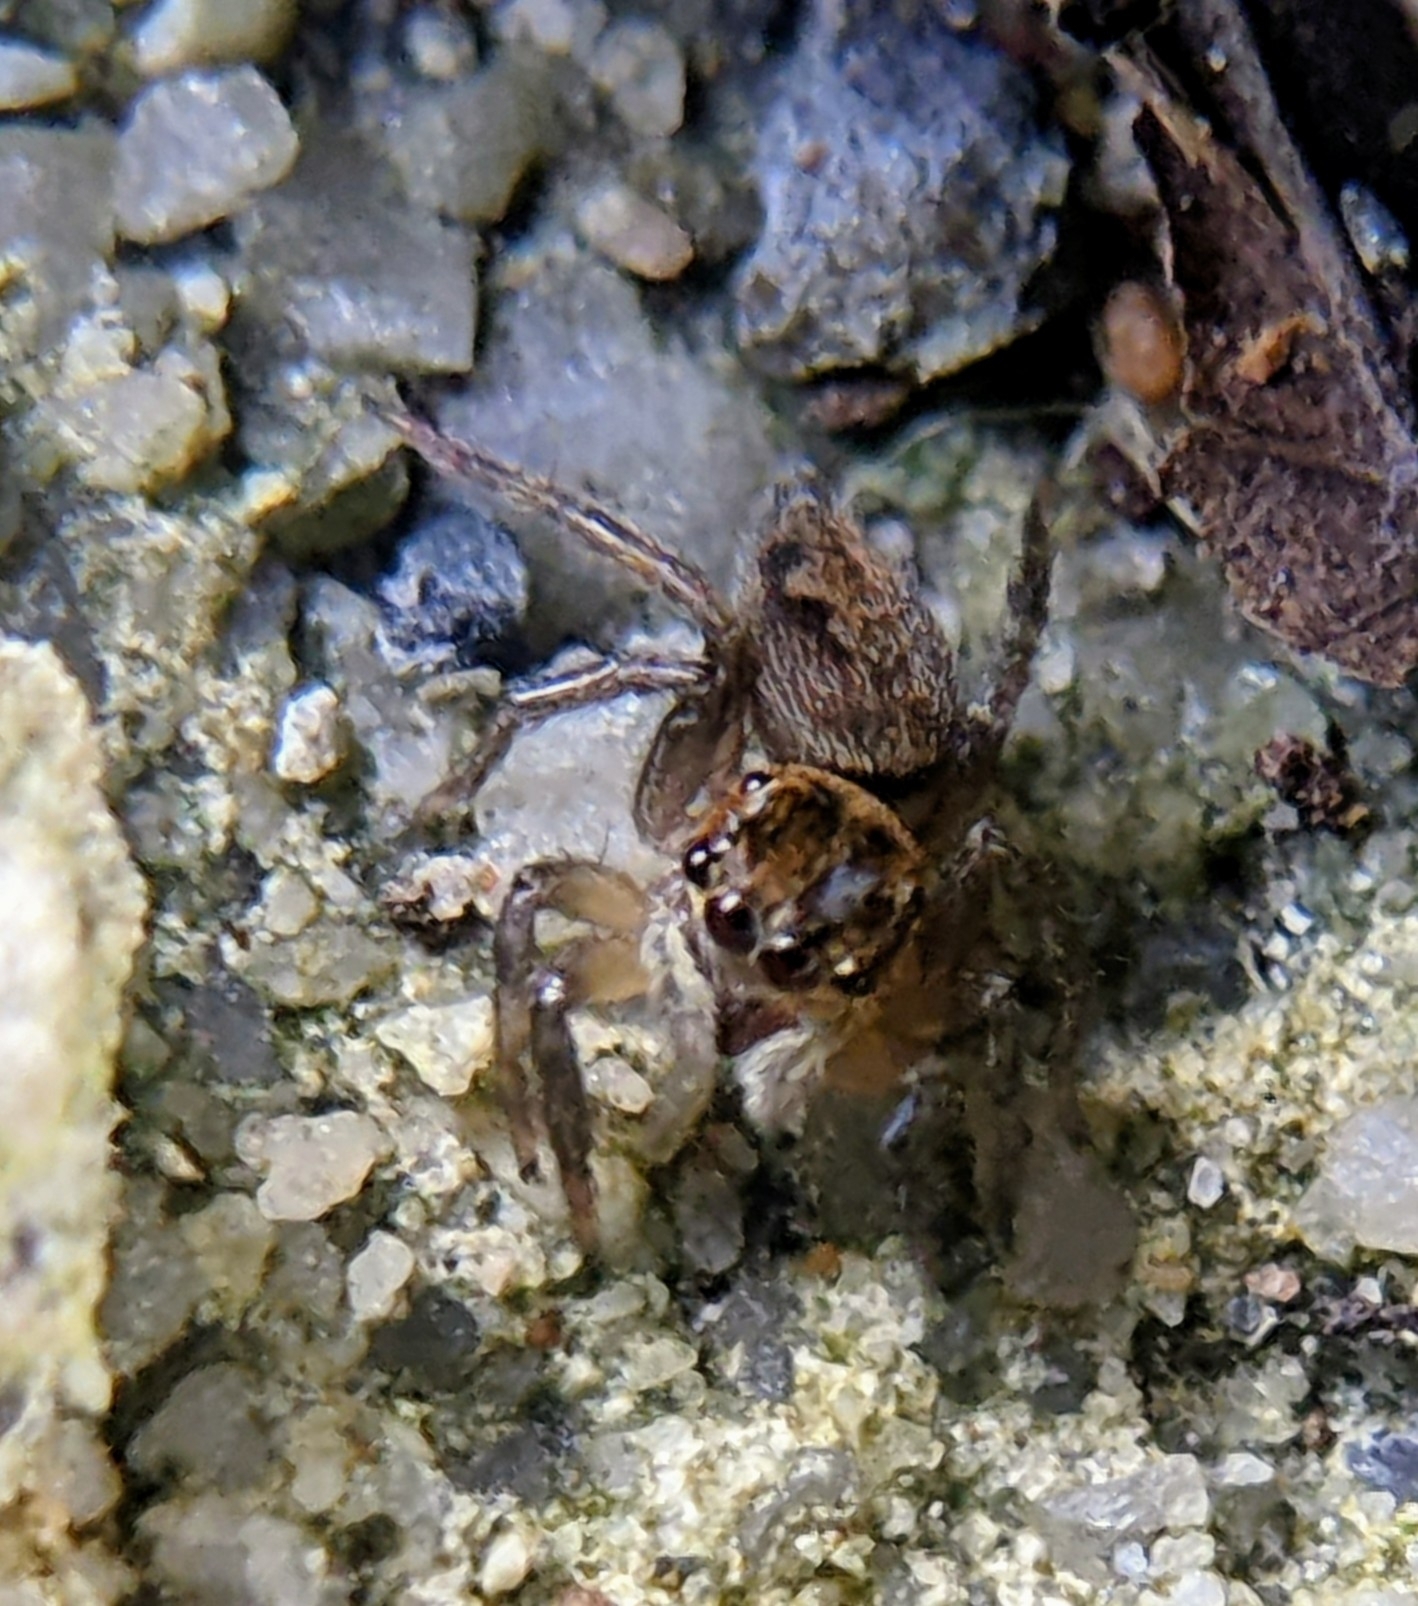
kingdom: Animalia
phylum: Arthropoda
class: Arachnida
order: Araneae
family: Salticidae
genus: Hasarius
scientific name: Hasarius adansoni
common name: Jumping spider
